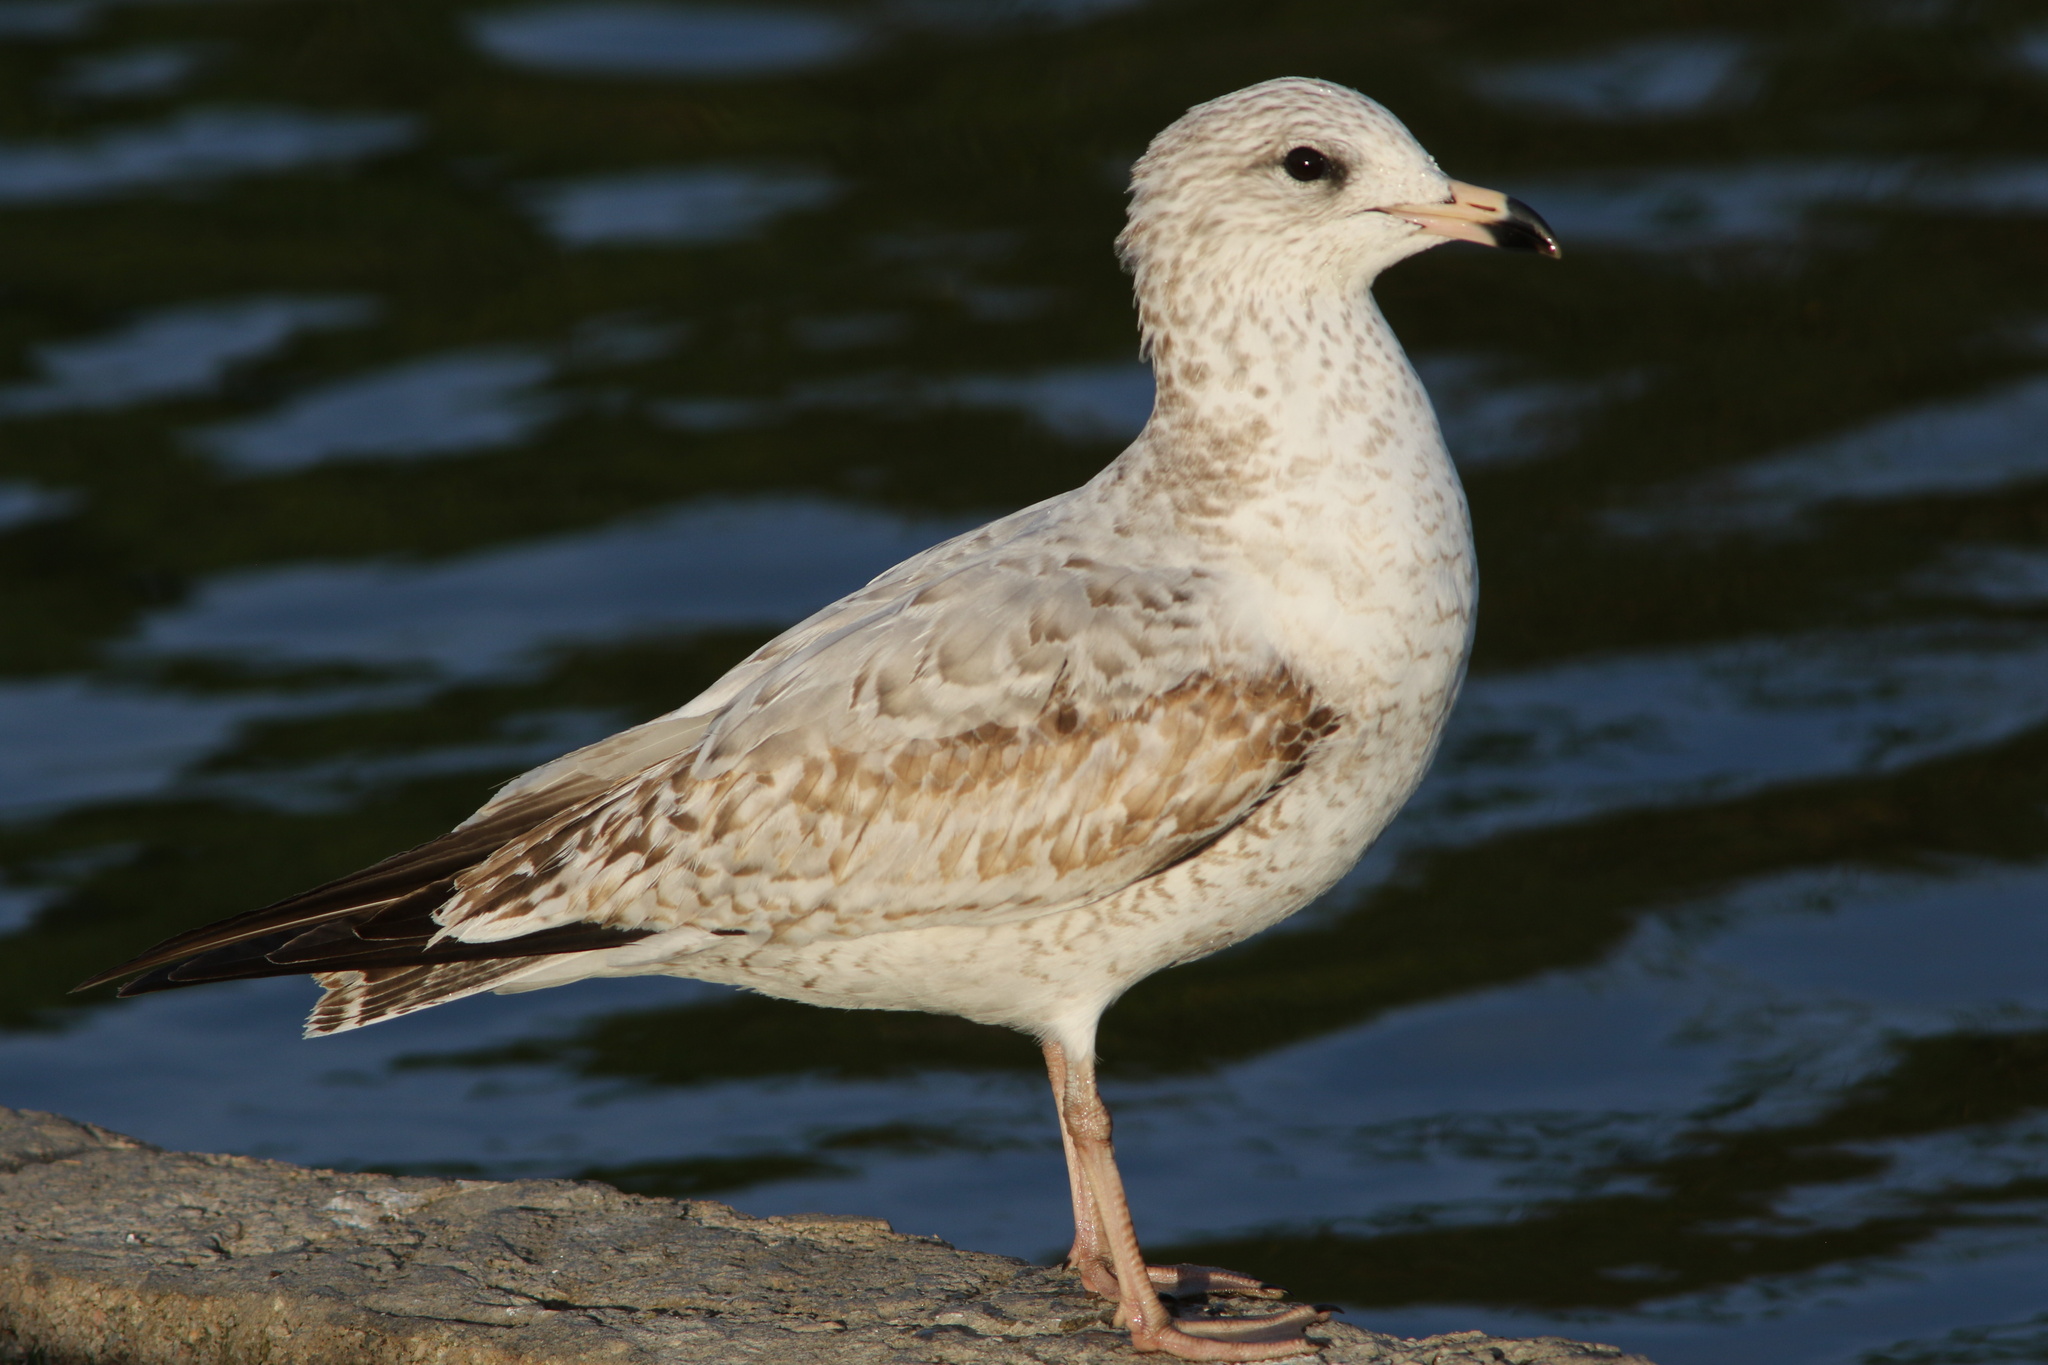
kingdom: Animalia
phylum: Chordata
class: Aves
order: Charadriiformes
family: Laridae
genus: Larus
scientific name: Larus delawarensis
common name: Ring-billed gull
